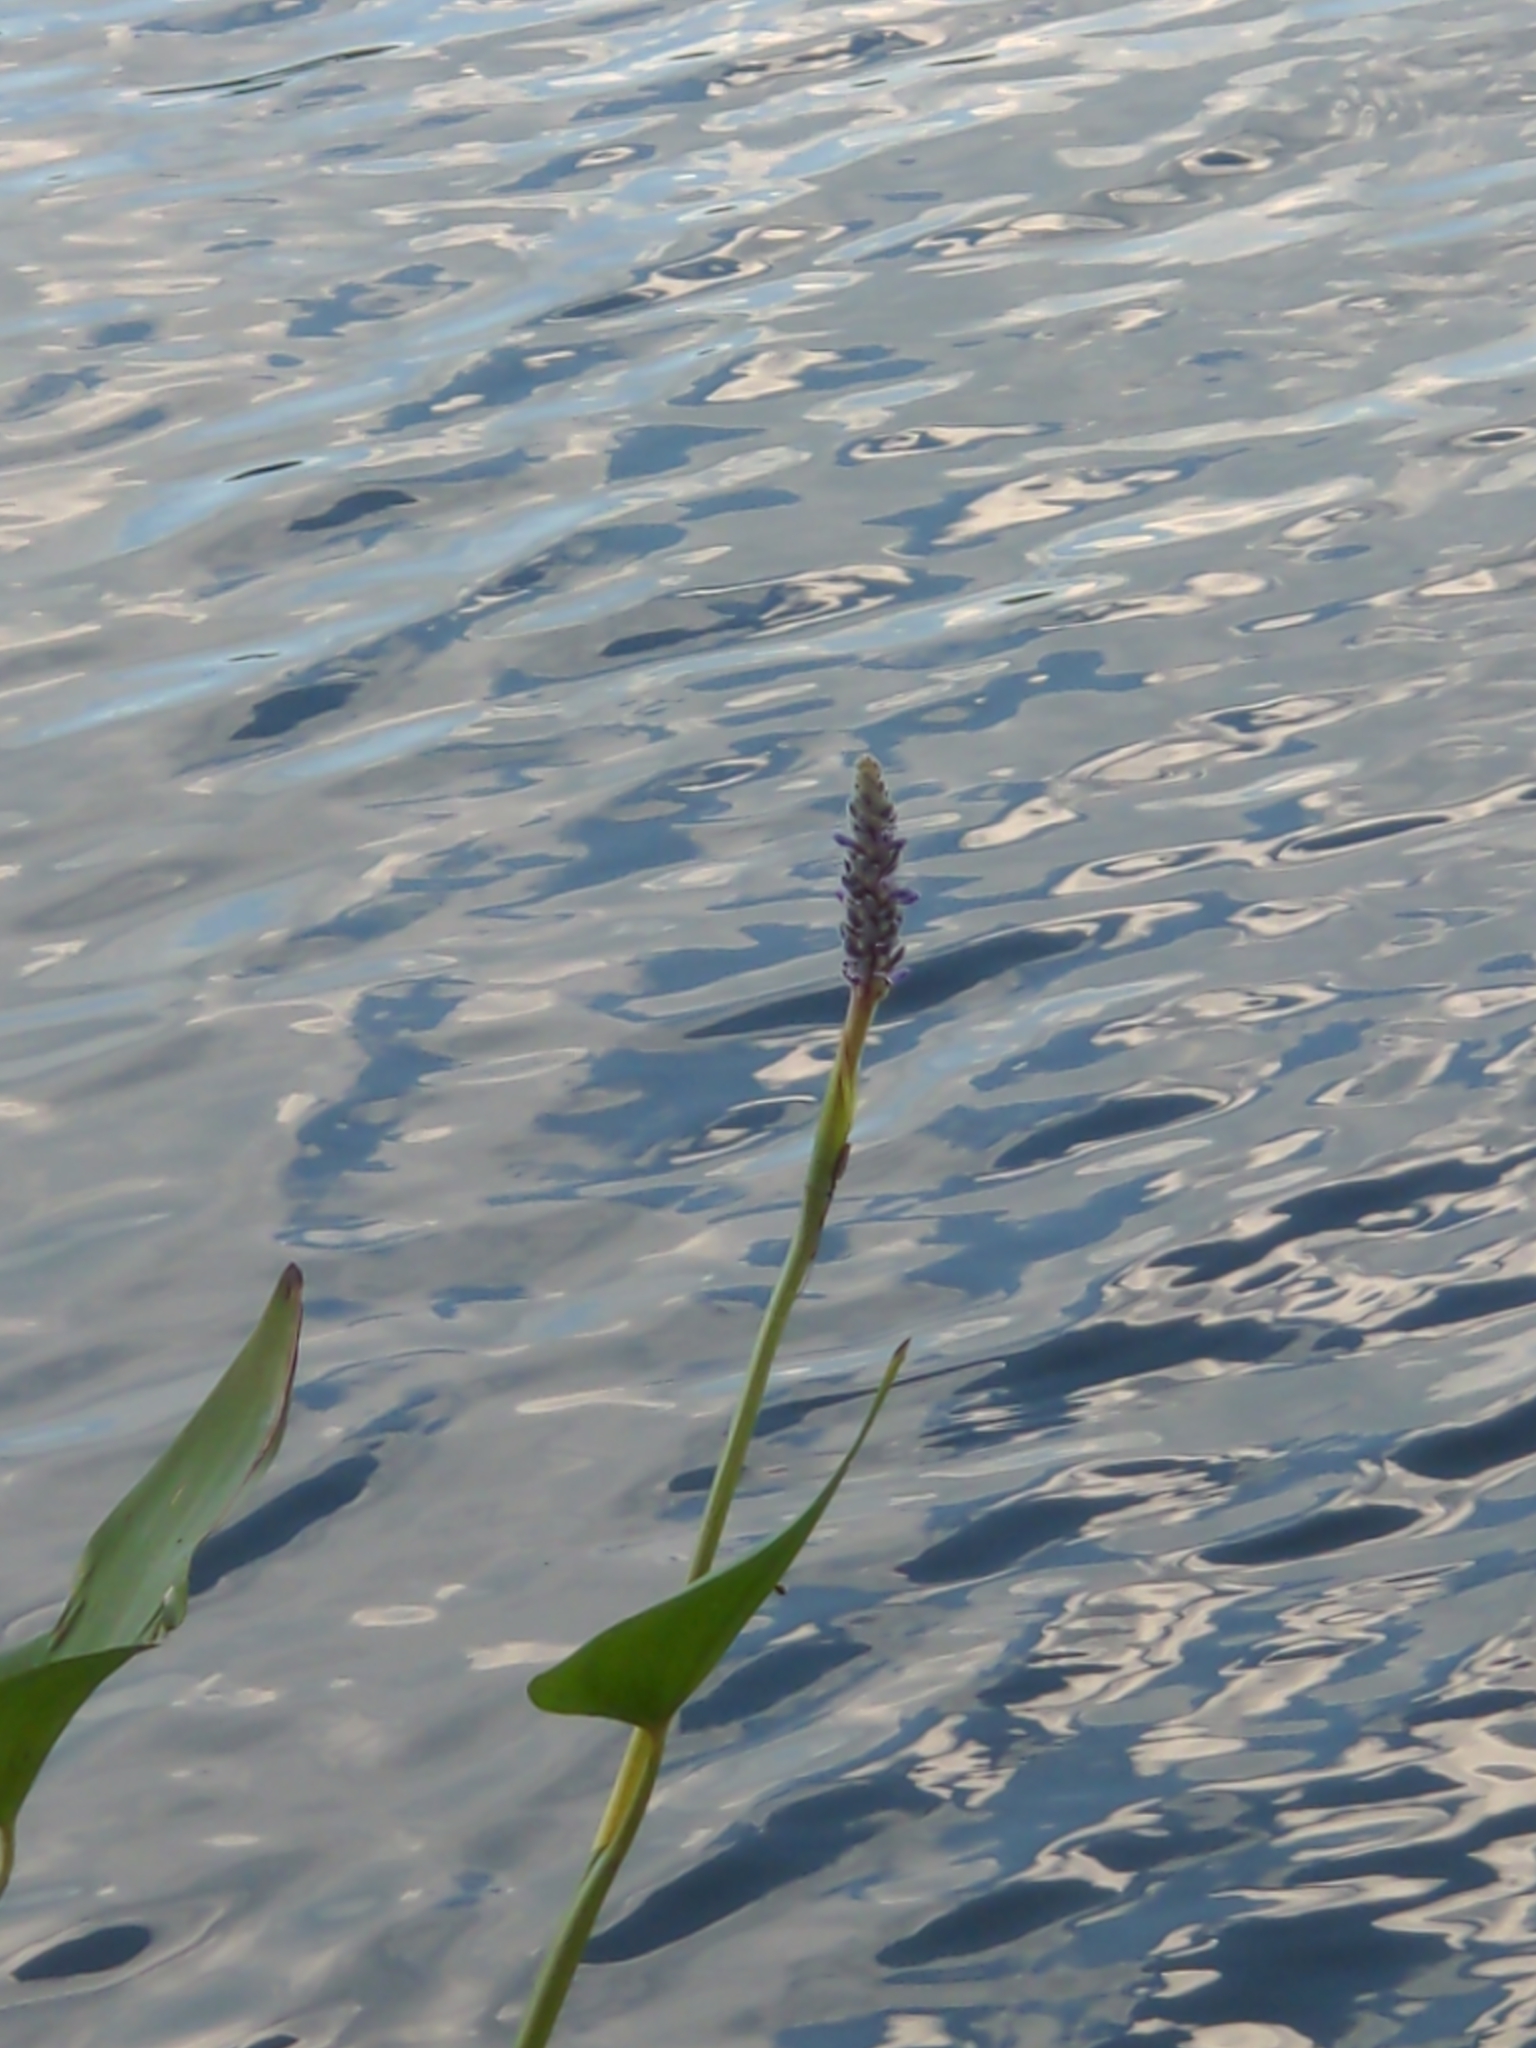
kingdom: Plantae
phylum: Tracheophyta
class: Liliopsida
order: Commelinales
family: Pontederiaceae
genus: Pontederia
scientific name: Pontederia cordata
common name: Pickerelweed
